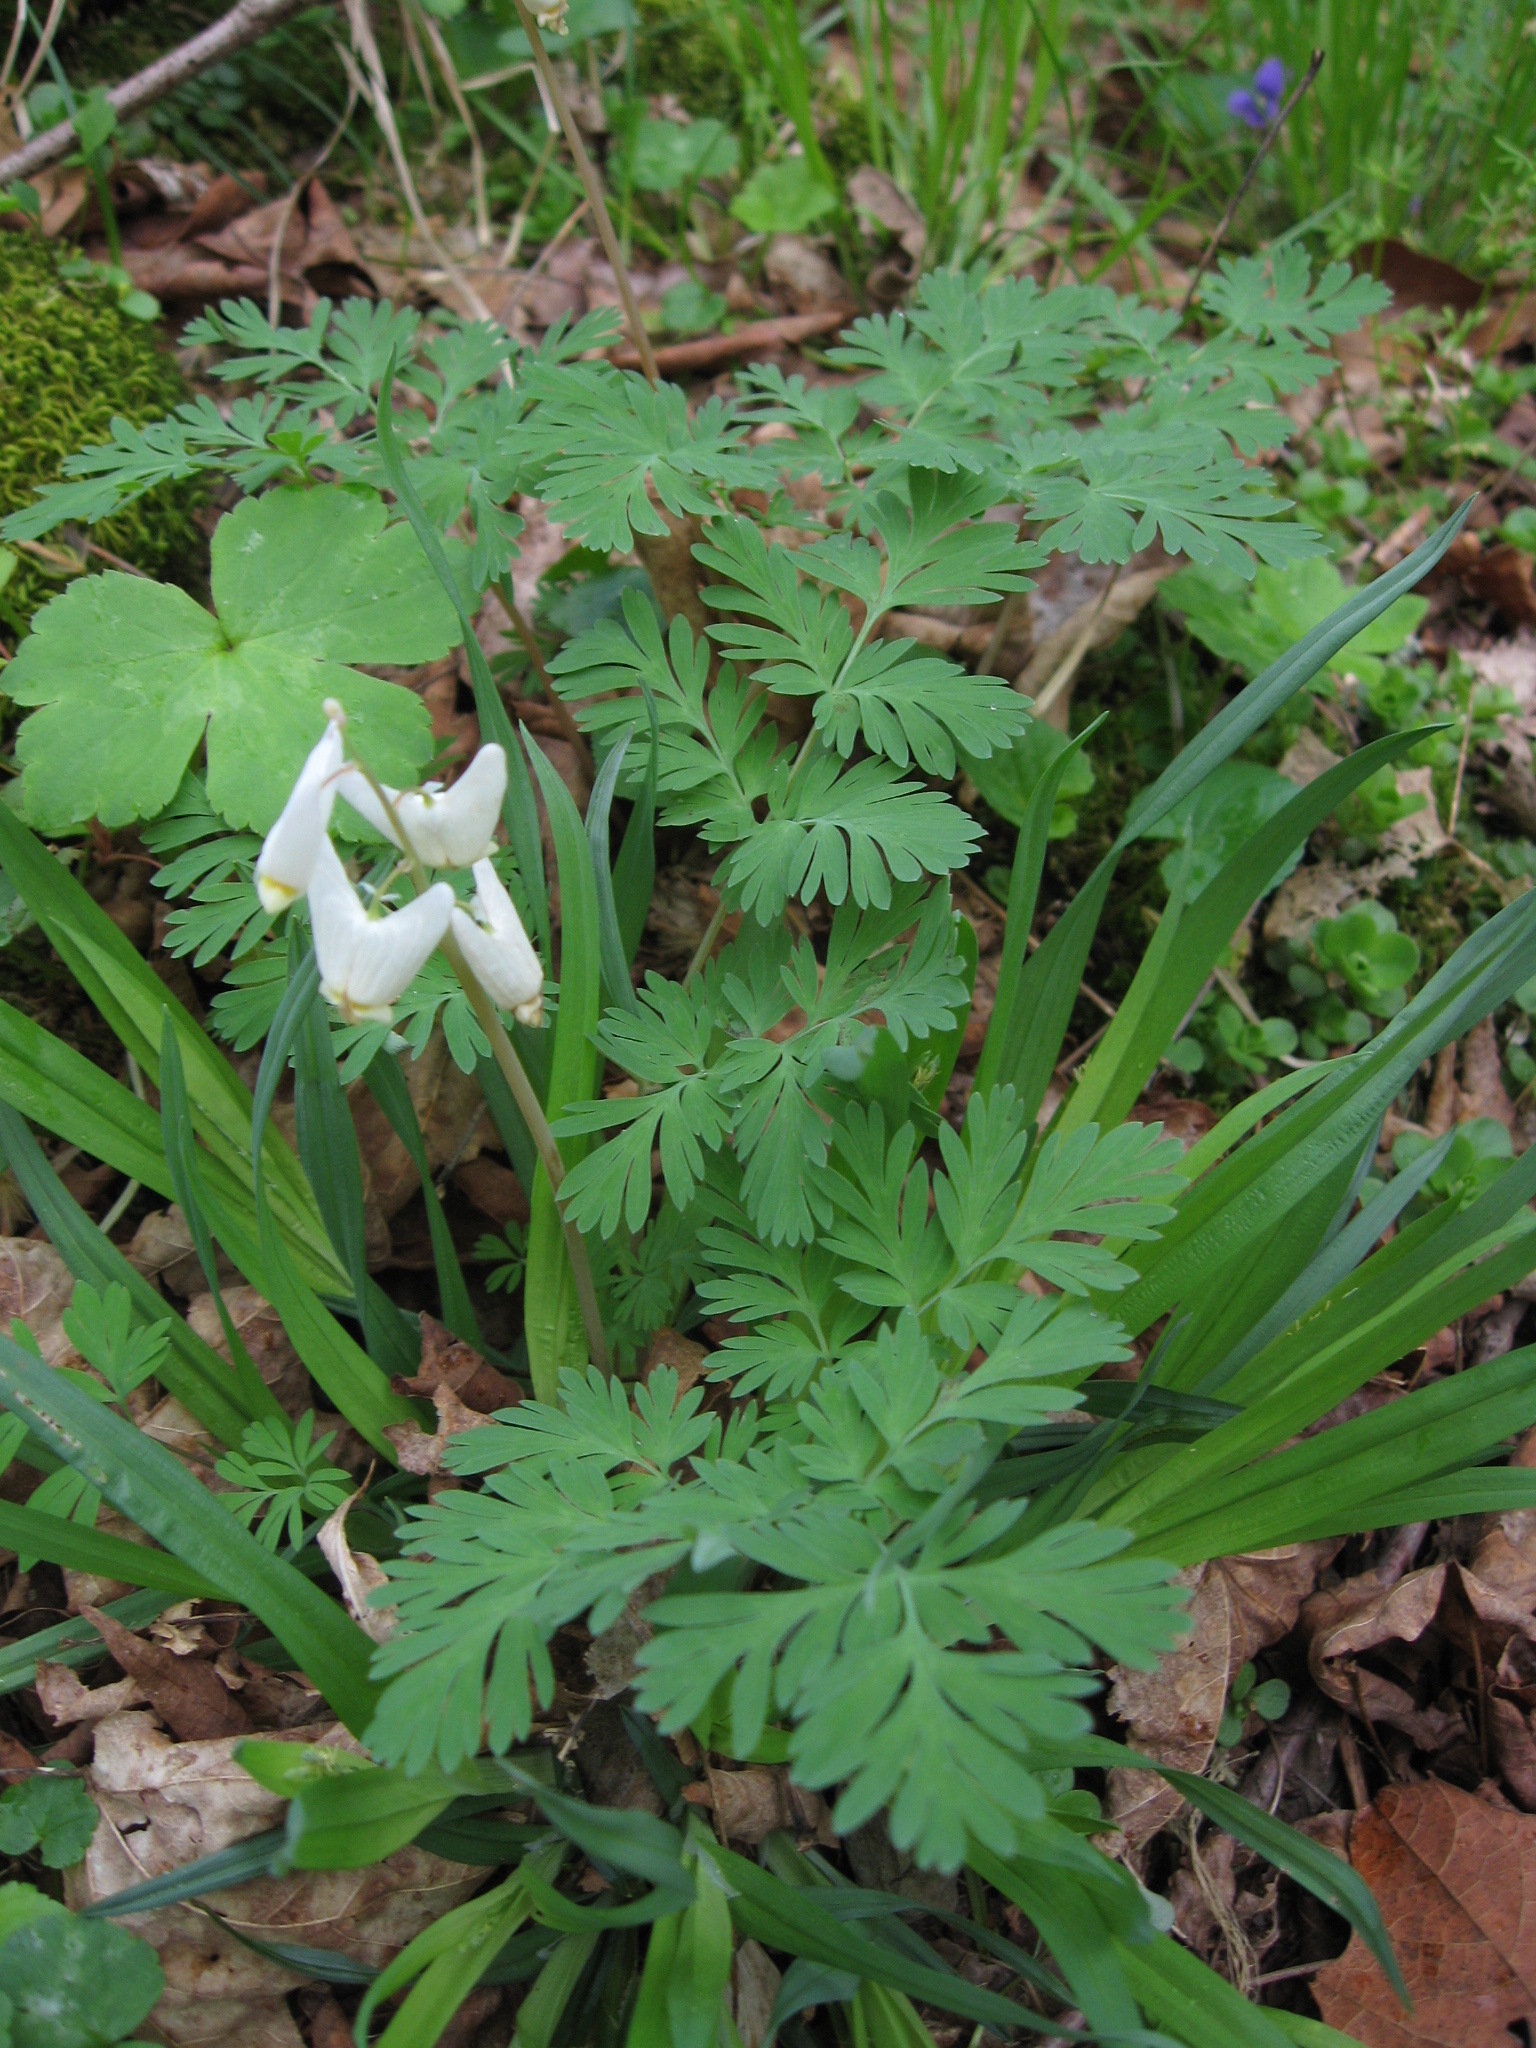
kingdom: Plantae
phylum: Tracheophyta
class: Magnoliopsida
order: Ranunculales
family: Papaveraceae
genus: Dicentra
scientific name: Dicentra cucullaria
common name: Dutchman's breeches
